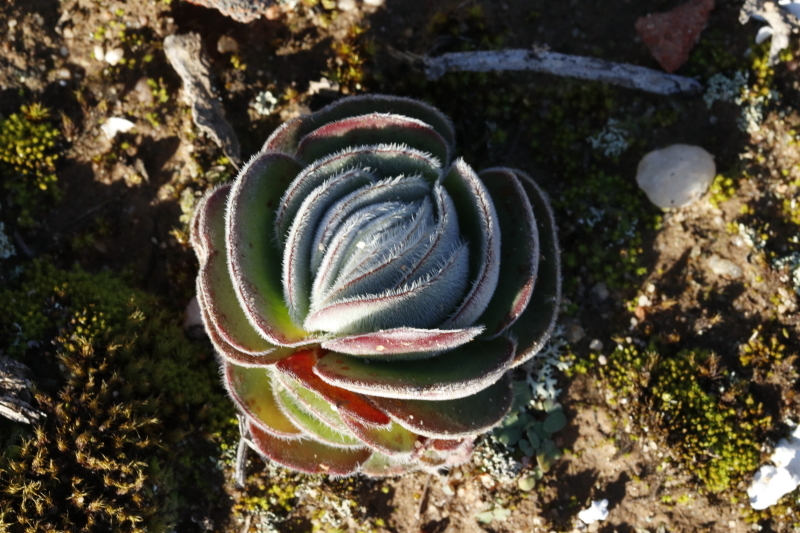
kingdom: Plantae
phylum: Tracheophyta
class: Magnoliopsida
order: Saxifragales
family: Crassulaceae
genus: Crassula
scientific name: Crassula tomentosa
